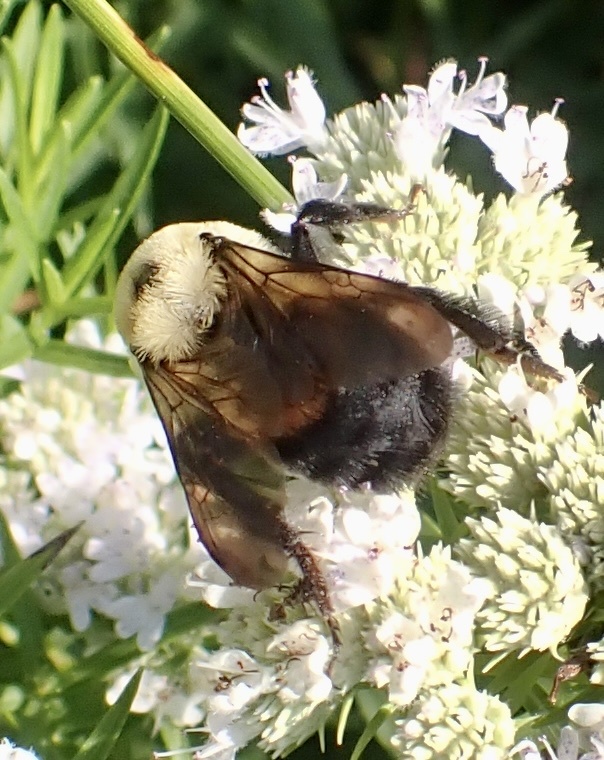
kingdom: Animalia
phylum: Arthropoda
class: Insecta
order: Hymenoptera
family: Apidae
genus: Bombus
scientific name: Bombus griseocollis
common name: Brown-belted bumble bee
